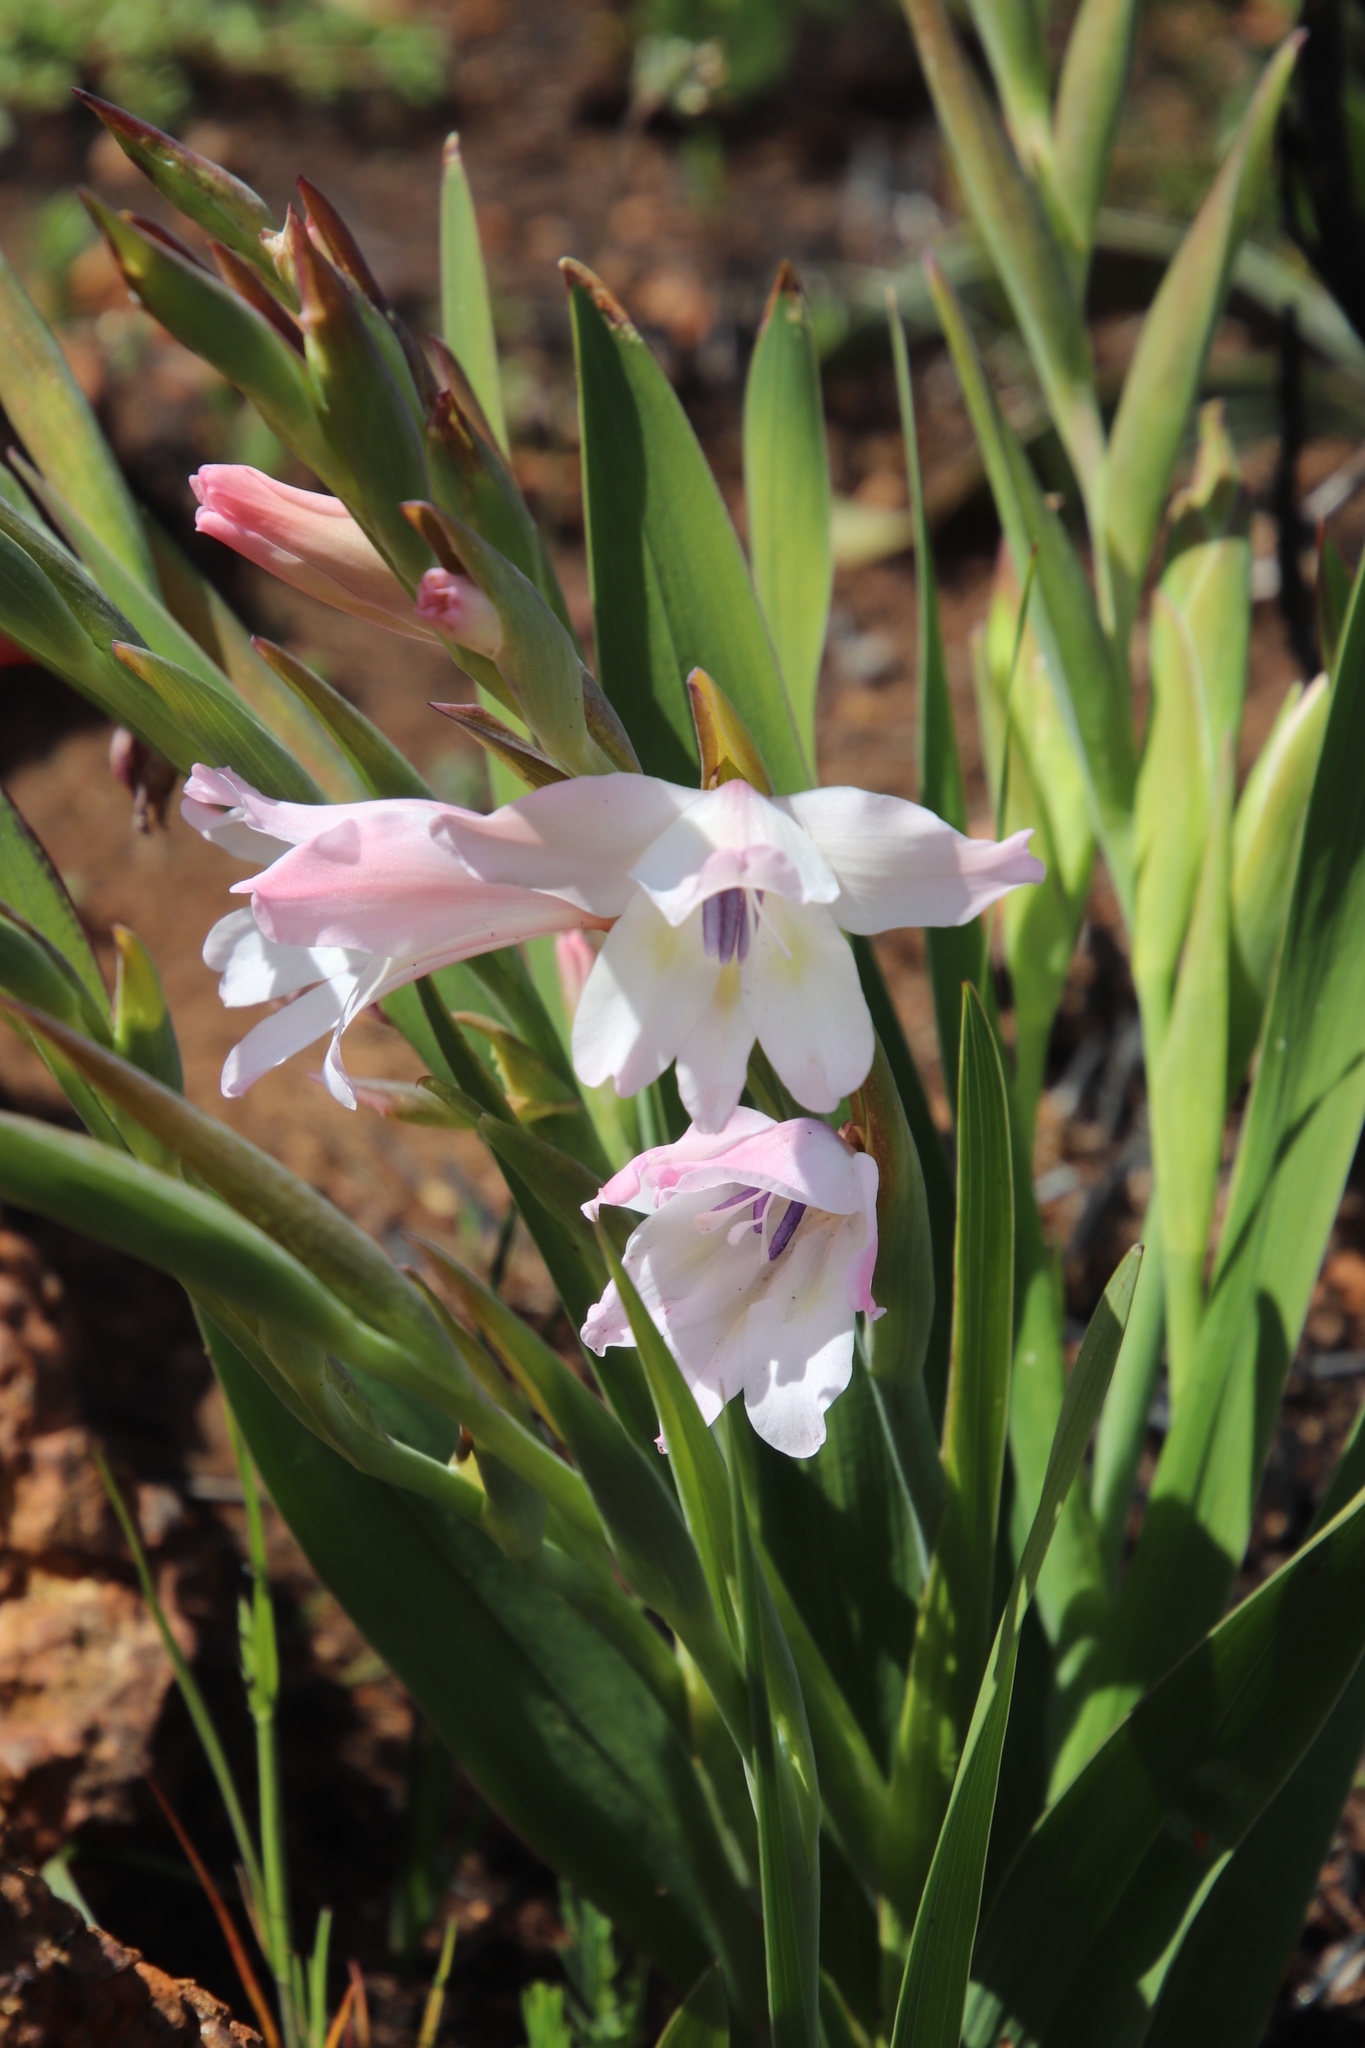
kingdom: Plantae
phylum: Tracheophyta
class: Liliopsida
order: Asparagales
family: Iridaceae
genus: Gladiolus
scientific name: Gladiolus carneus
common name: Painted-lady
